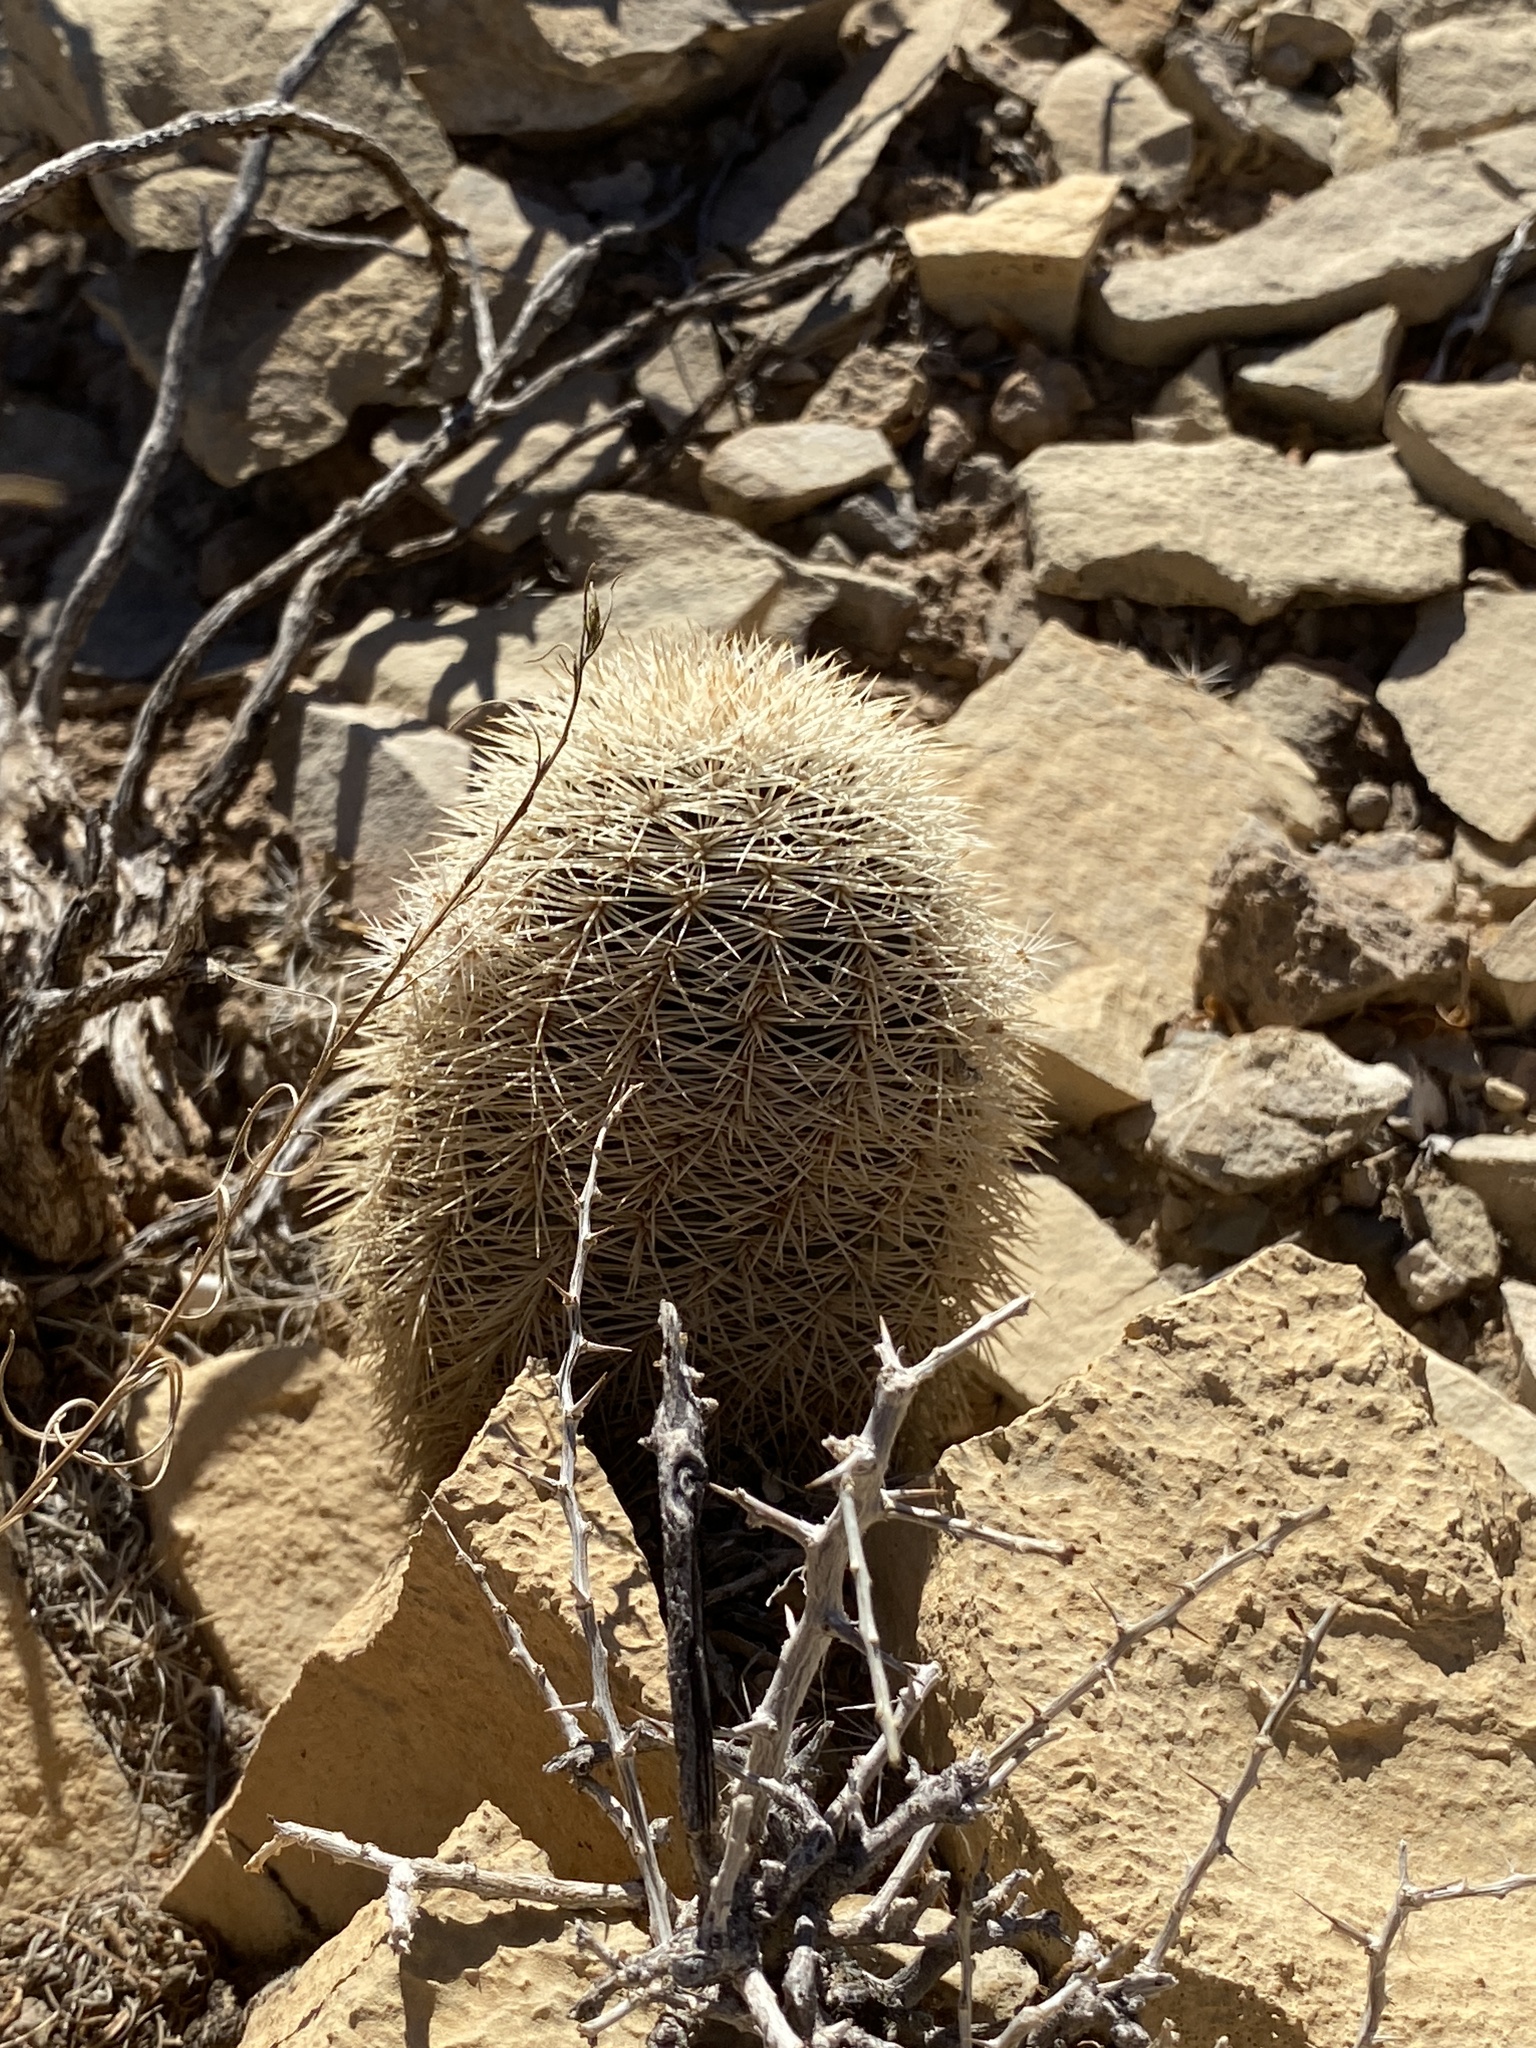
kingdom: Plantae
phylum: Tracheophyta
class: Magnoliopsida
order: Caryophyllales
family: Cactaceae
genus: Echinocereus
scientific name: Echinocereus dasyacanthus
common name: Spiny hedgehog cactus
